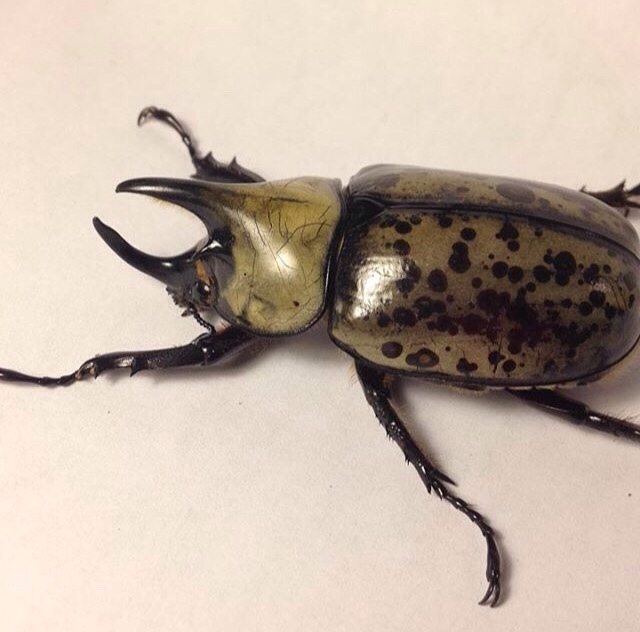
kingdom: Animalia
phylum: Arthropoda
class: Insecta
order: Coleoptera
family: Scarabaeidae
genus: Dynastes
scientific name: Dynastes tityus
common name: Eastern hercules beetle
